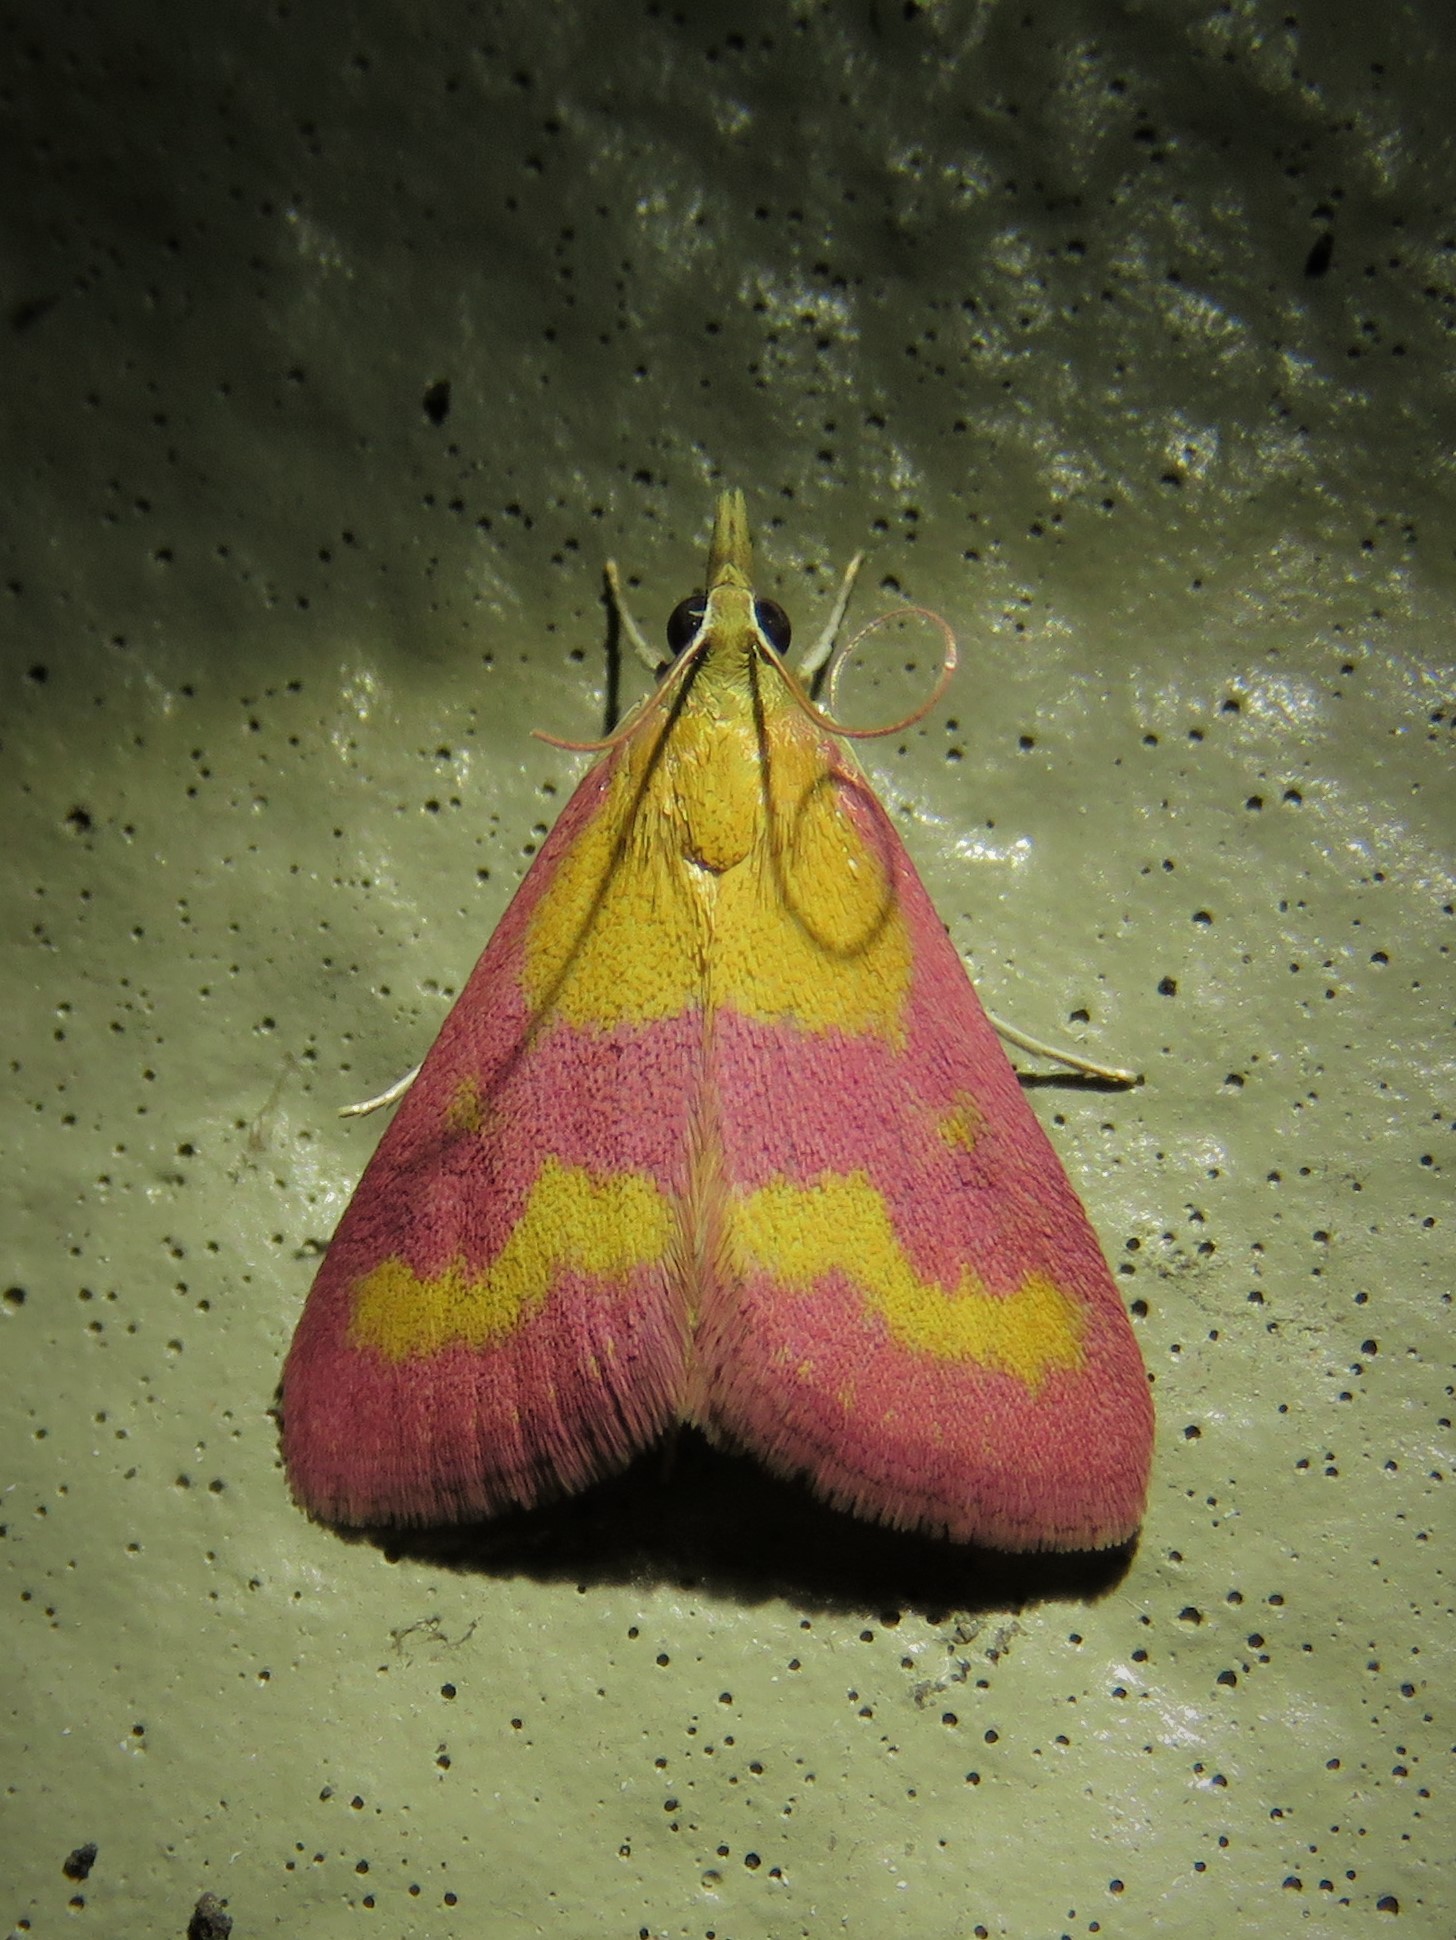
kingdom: Animalia
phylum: Arthropoda
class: Insecta
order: Lepidoptera
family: Crambidae
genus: Pyrausta
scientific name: Pyrausta laticlavia
